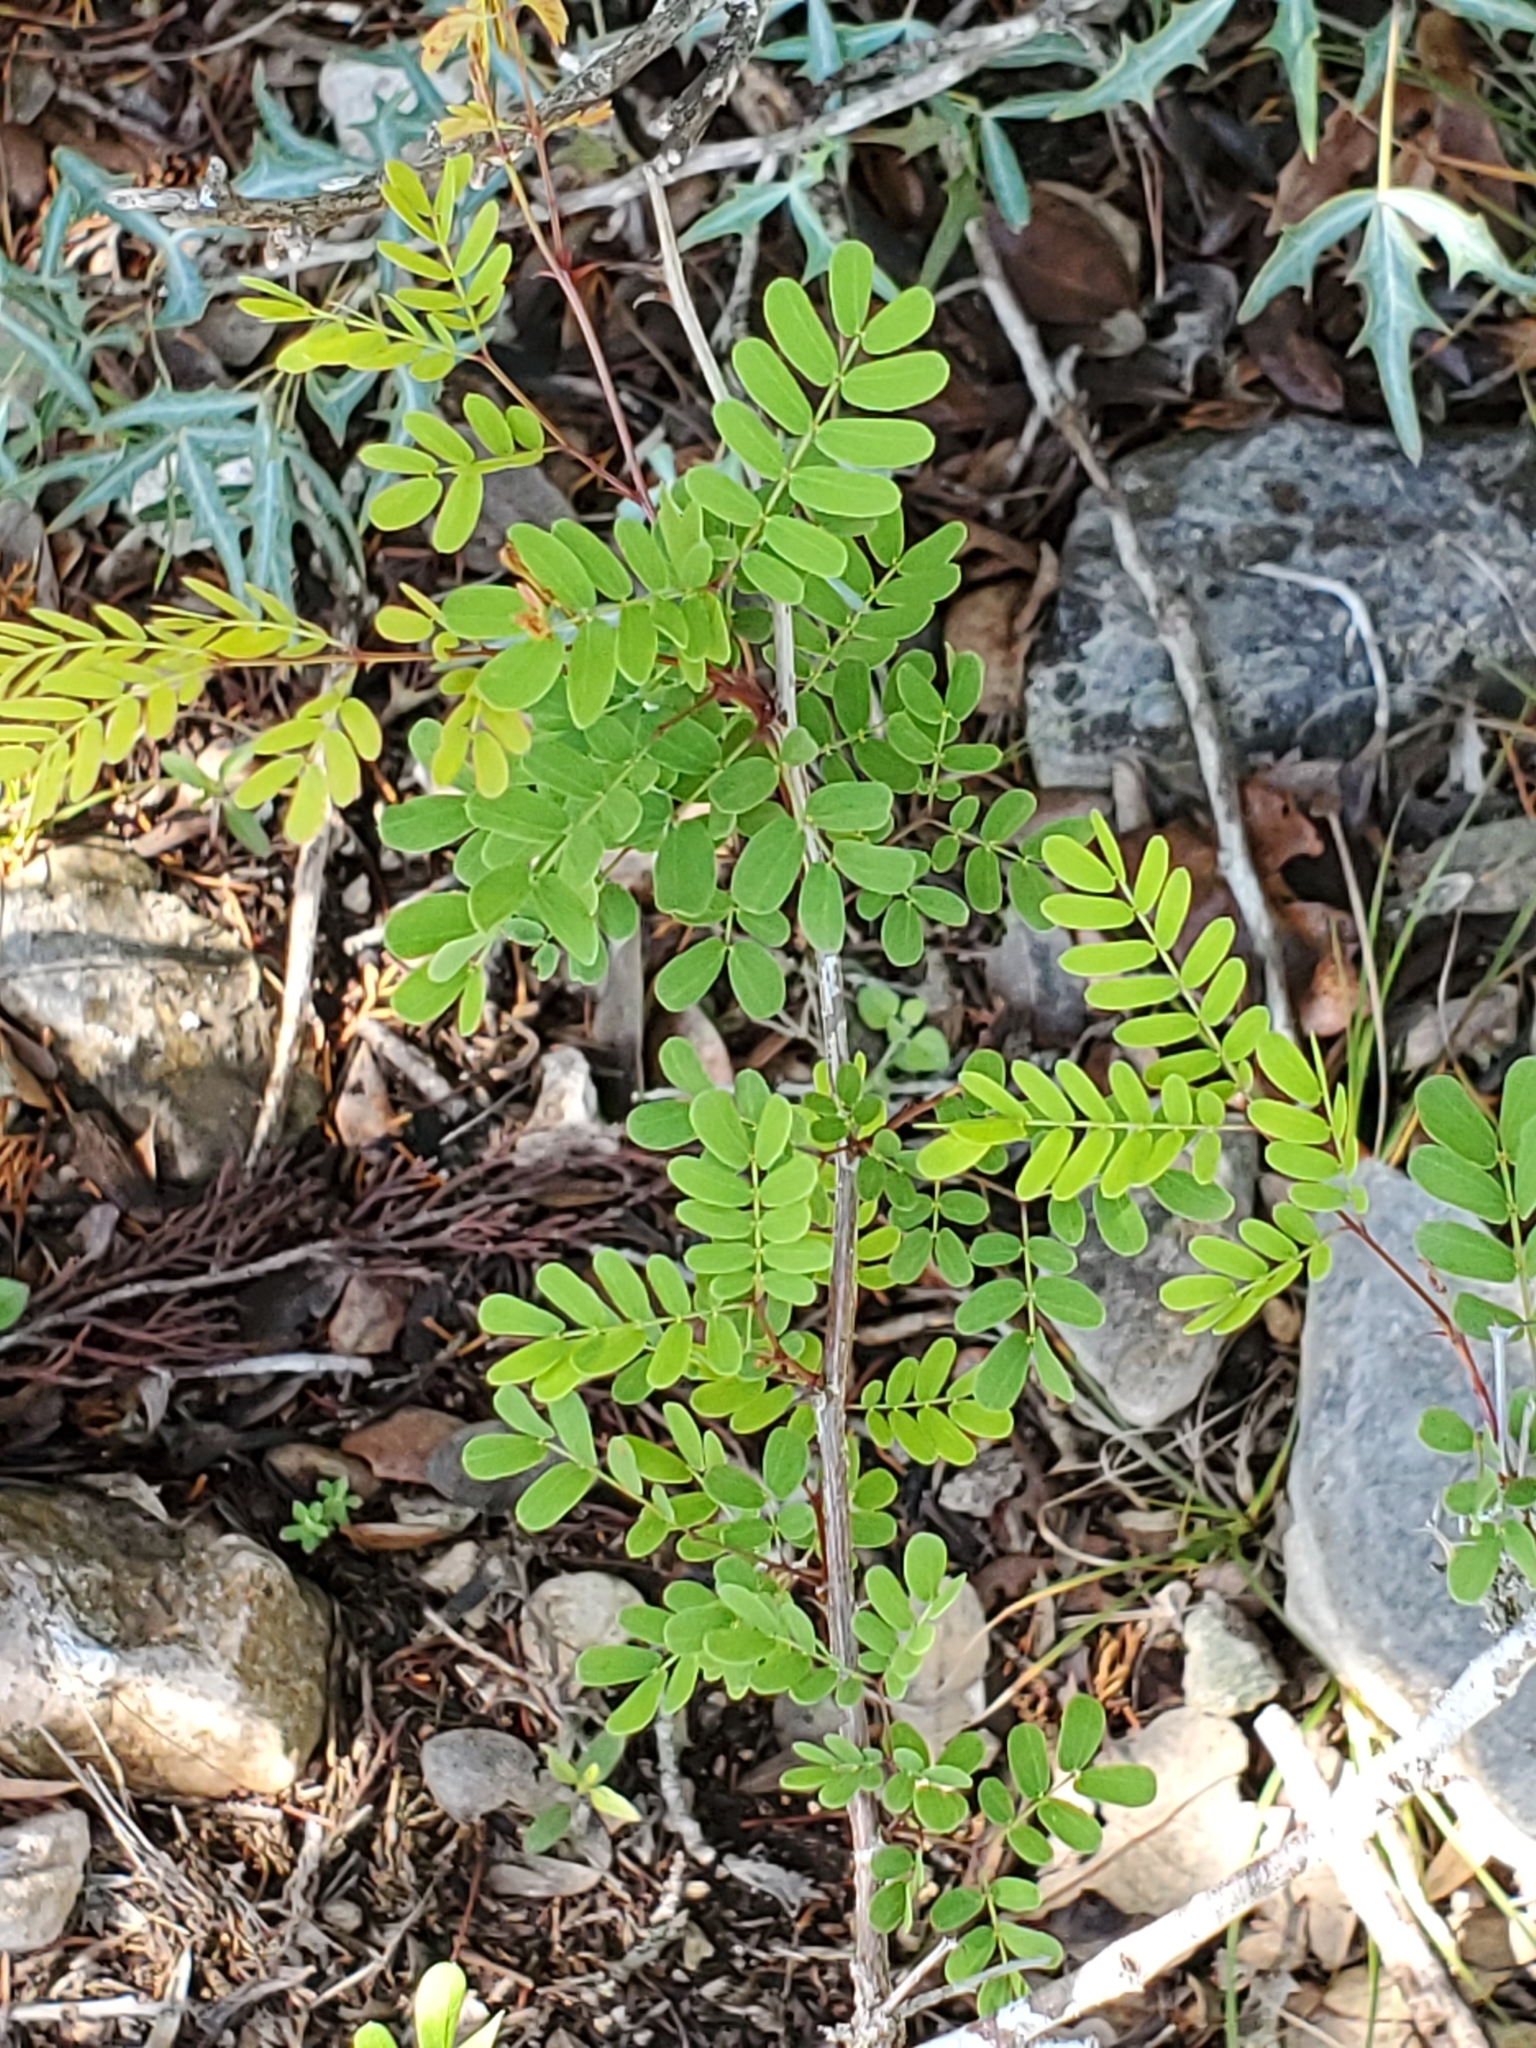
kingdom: Plantae
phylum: Tracheophyta
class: Magnoliopsida
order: Fabales
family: Fabaceae
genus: Senegalia
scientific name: Senegalia roemeriana
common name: Roemer's acacia
